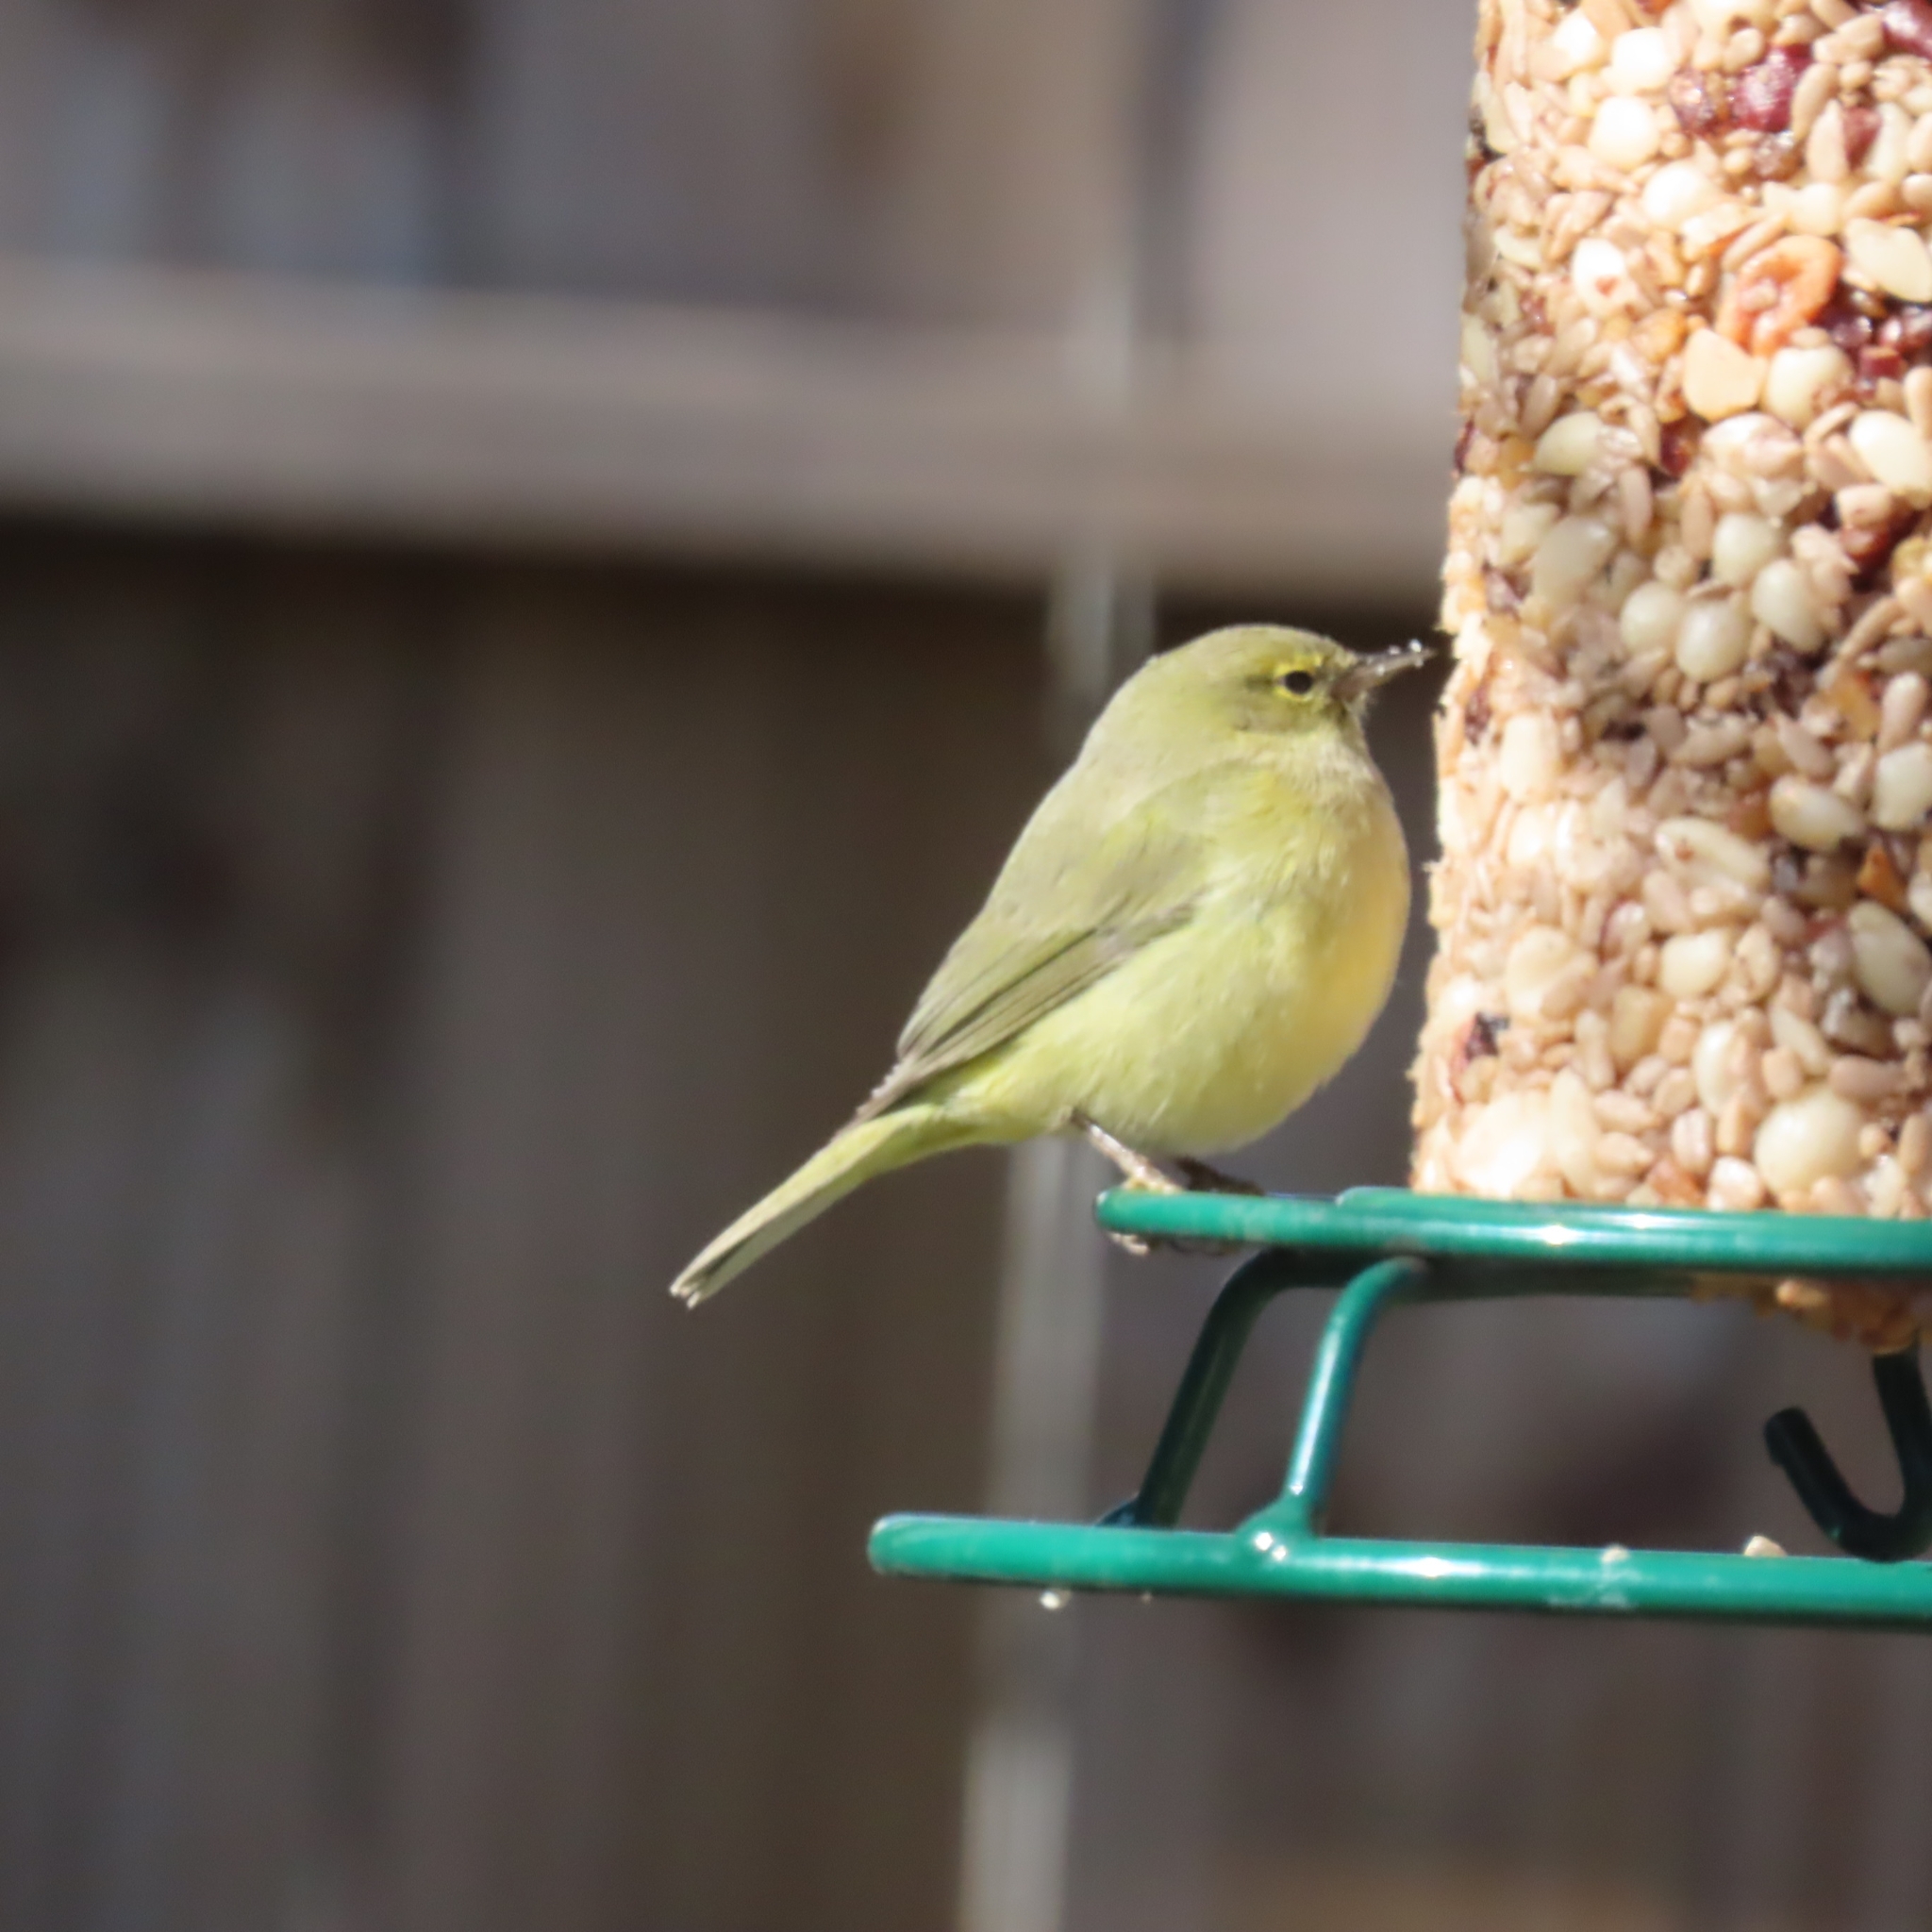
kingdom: Animalia
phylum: Chordata
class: Aves
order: Passeriformes
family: Parulidae
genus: Leiothlypis
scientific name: Leiothlypis celata
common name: Orange-crowned warbler
